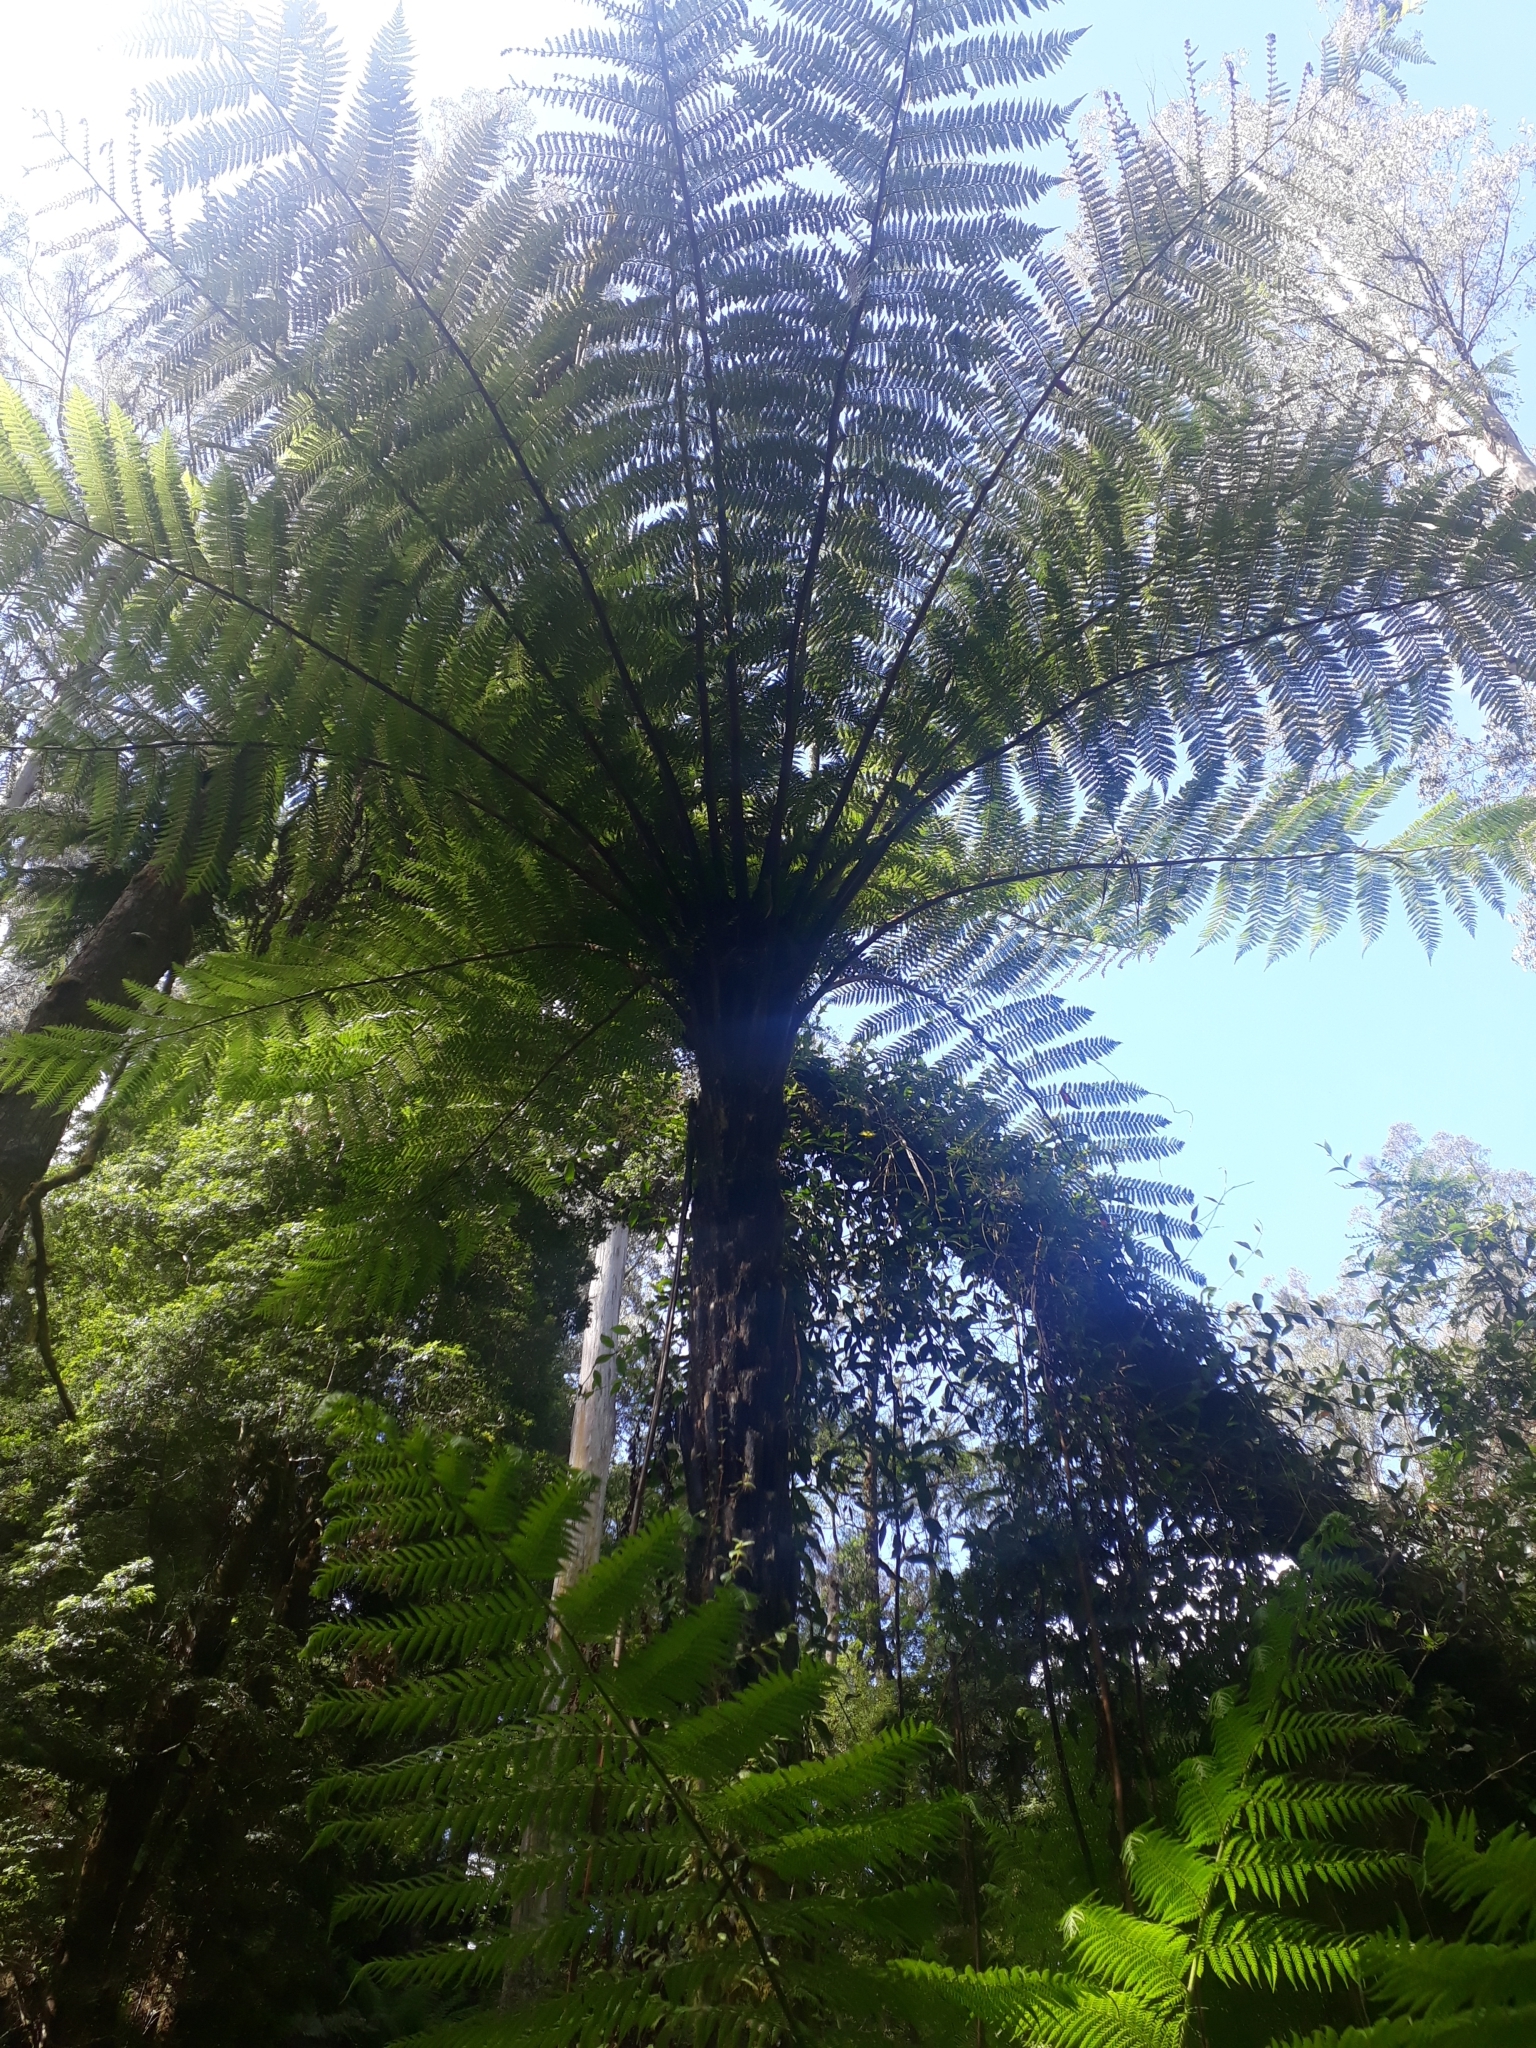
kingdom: Plantae
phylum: Tracheophyta
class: Polypodiopsida
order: Cyatheales
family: Cyatheaceae
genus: Cyathea
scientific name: Cyathea cunninghamii
